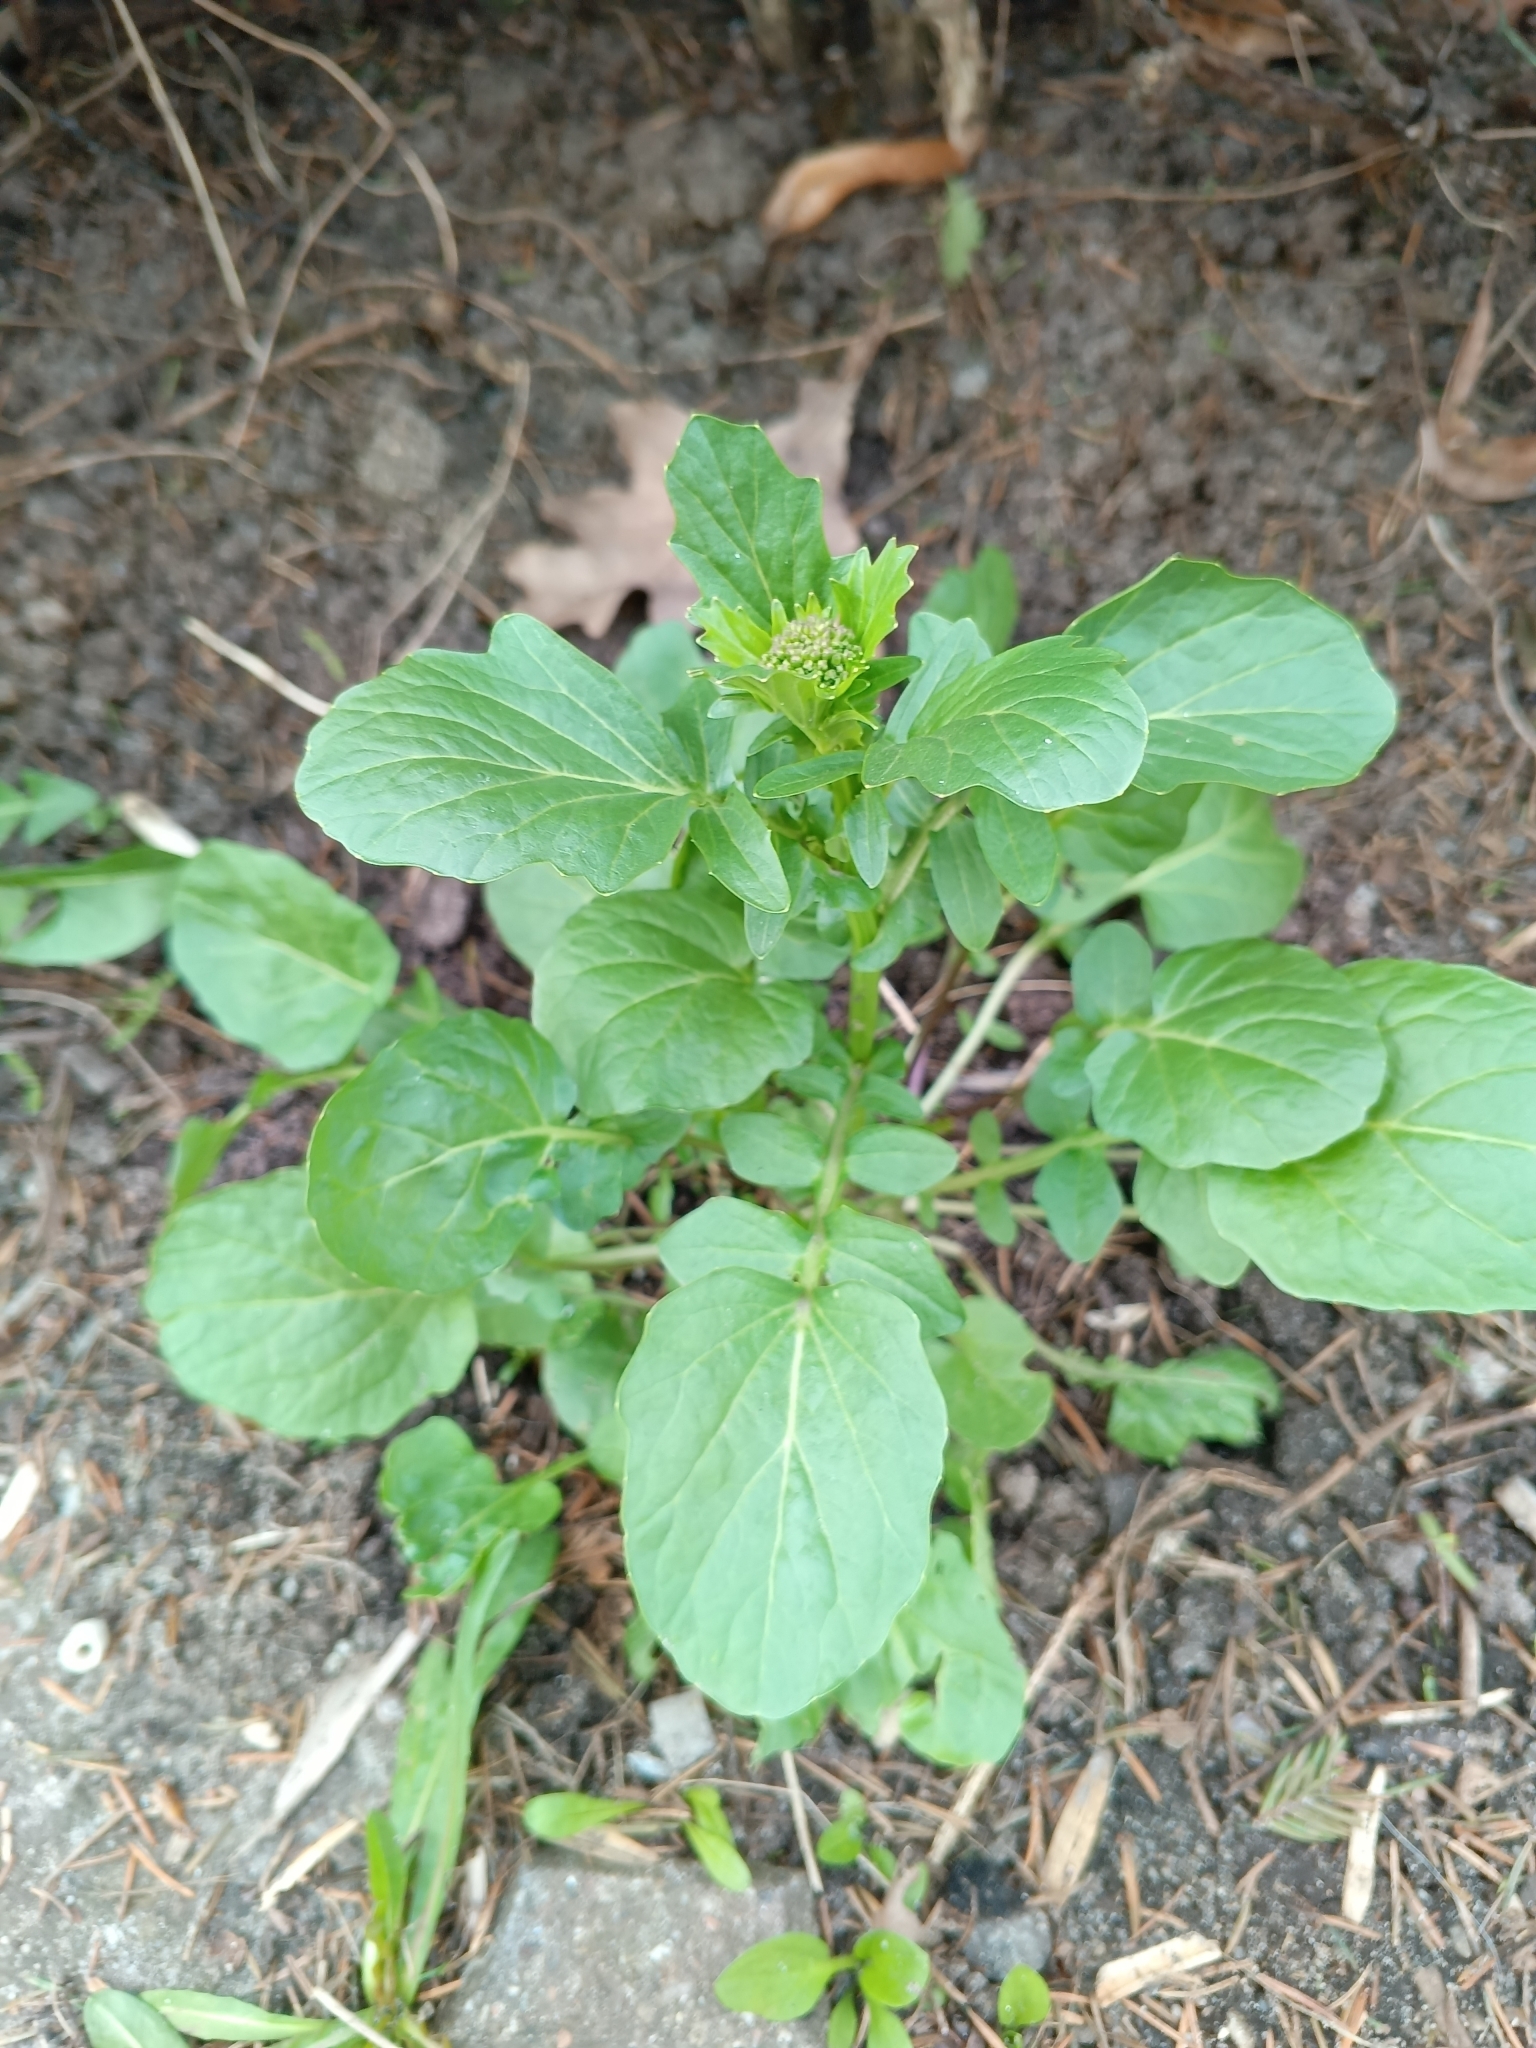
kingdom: Plantae
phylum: Tracheophyta
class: Magnoliopsida
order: Brassicales
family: Brassicaceae
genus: Barbarea
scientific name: Barbarea vulgaris
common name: Cressy-greens
